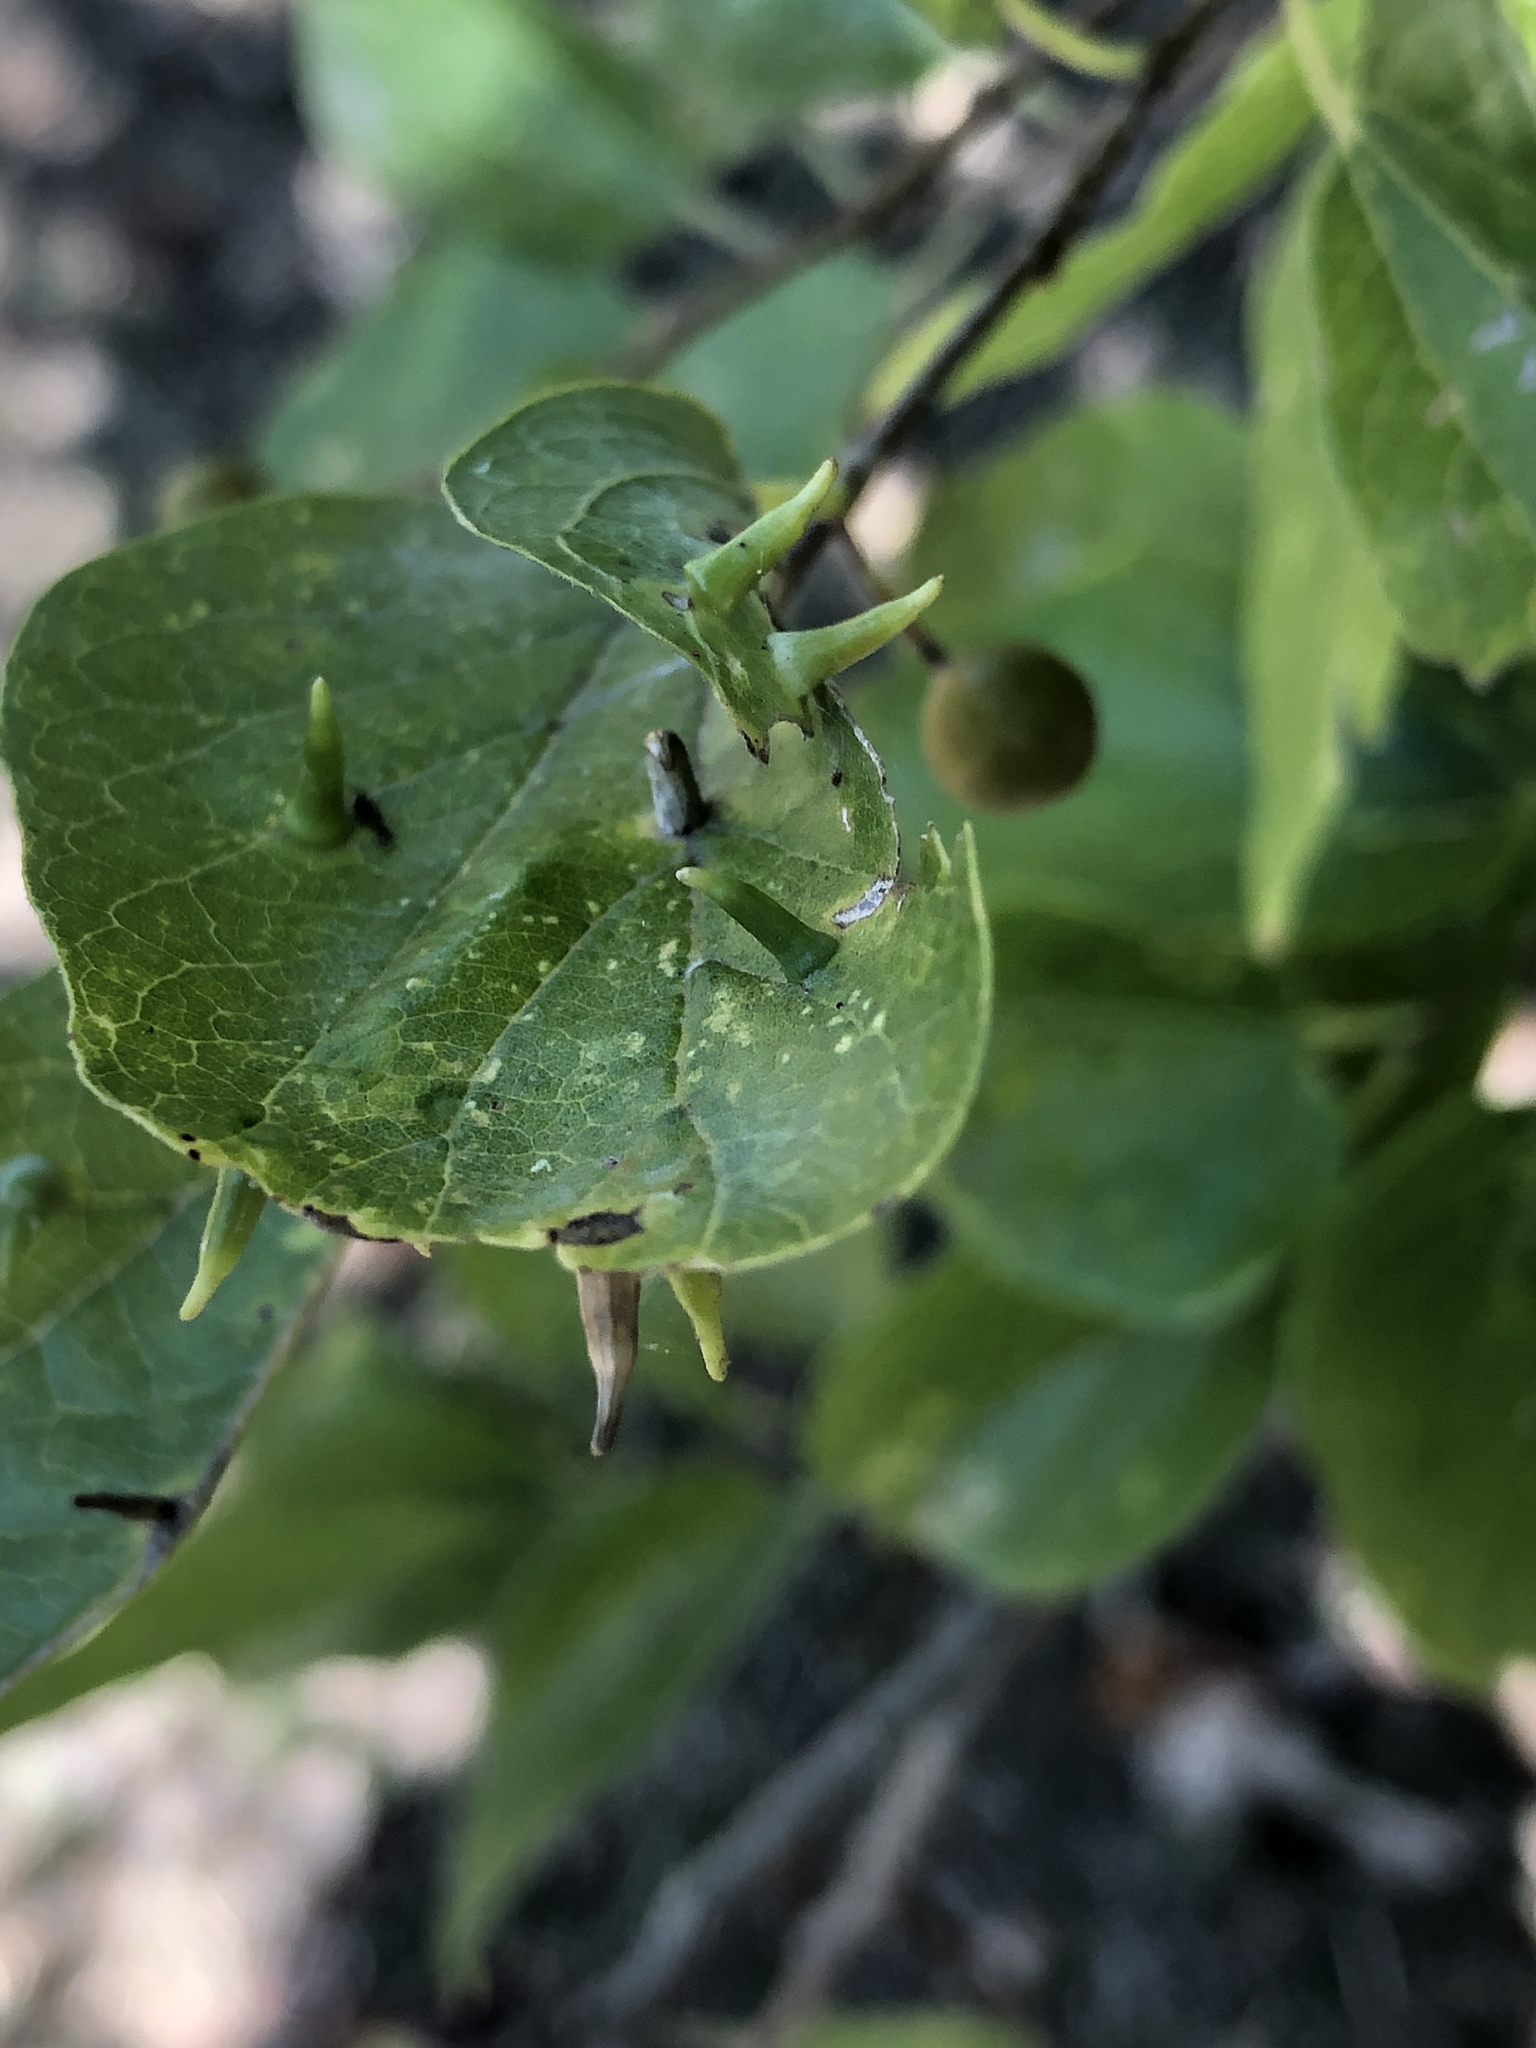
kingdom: Animalia
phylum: Arthropoda
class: Insecta
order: Diptera
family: Cecidomyiidae
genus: Celticecis
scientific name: Celticecis subulata
